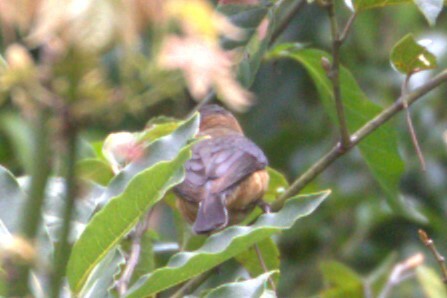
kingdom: Animalia
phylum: Chordata
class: Aves
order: Passeriformes
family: Meliphagidae
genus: Acanthorhynchus
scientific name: Acanthorhynchus tenuirostris
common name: Eastern spinebill
